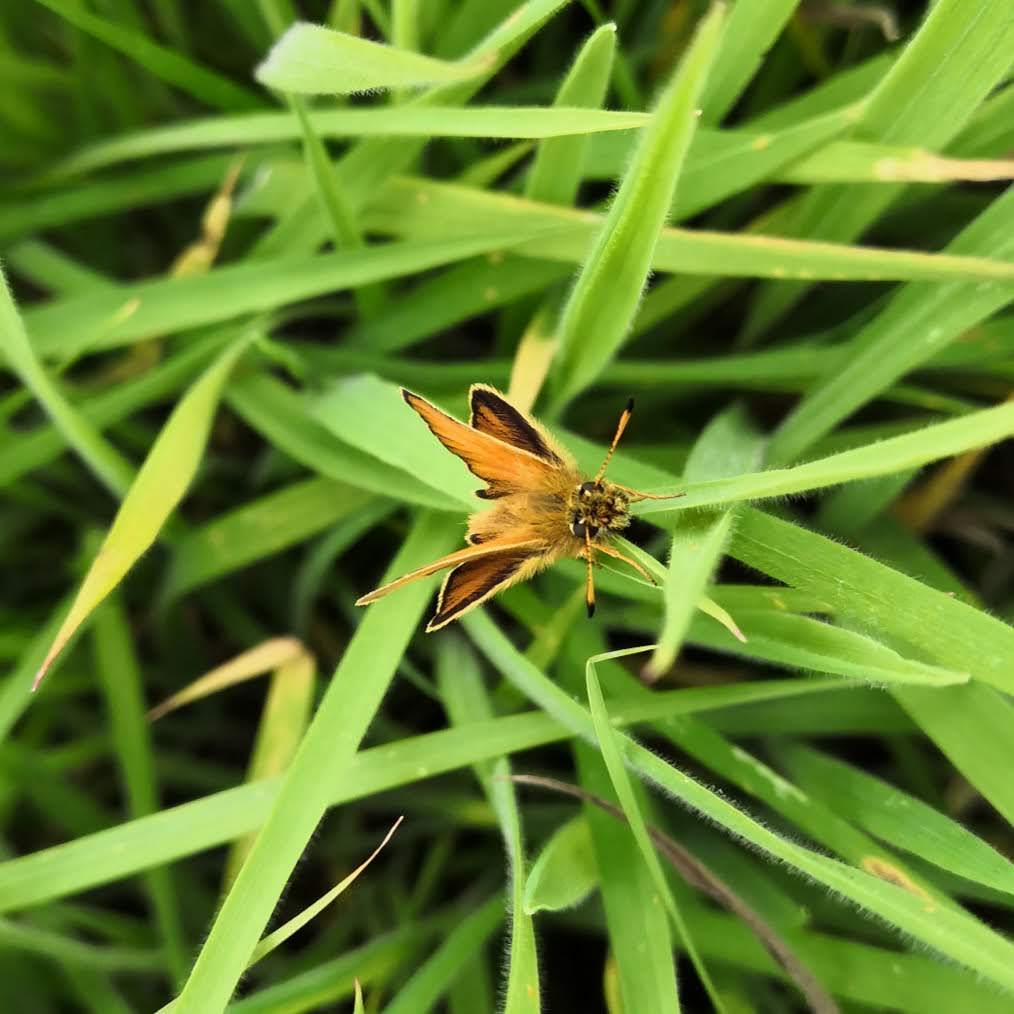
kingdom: Animalia
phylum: Arthropoda
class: Insecta
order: Lepidoptera
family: Hesperiidae
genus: Thymelicus
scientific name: Thymelicus lineola
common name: Essex skipper
